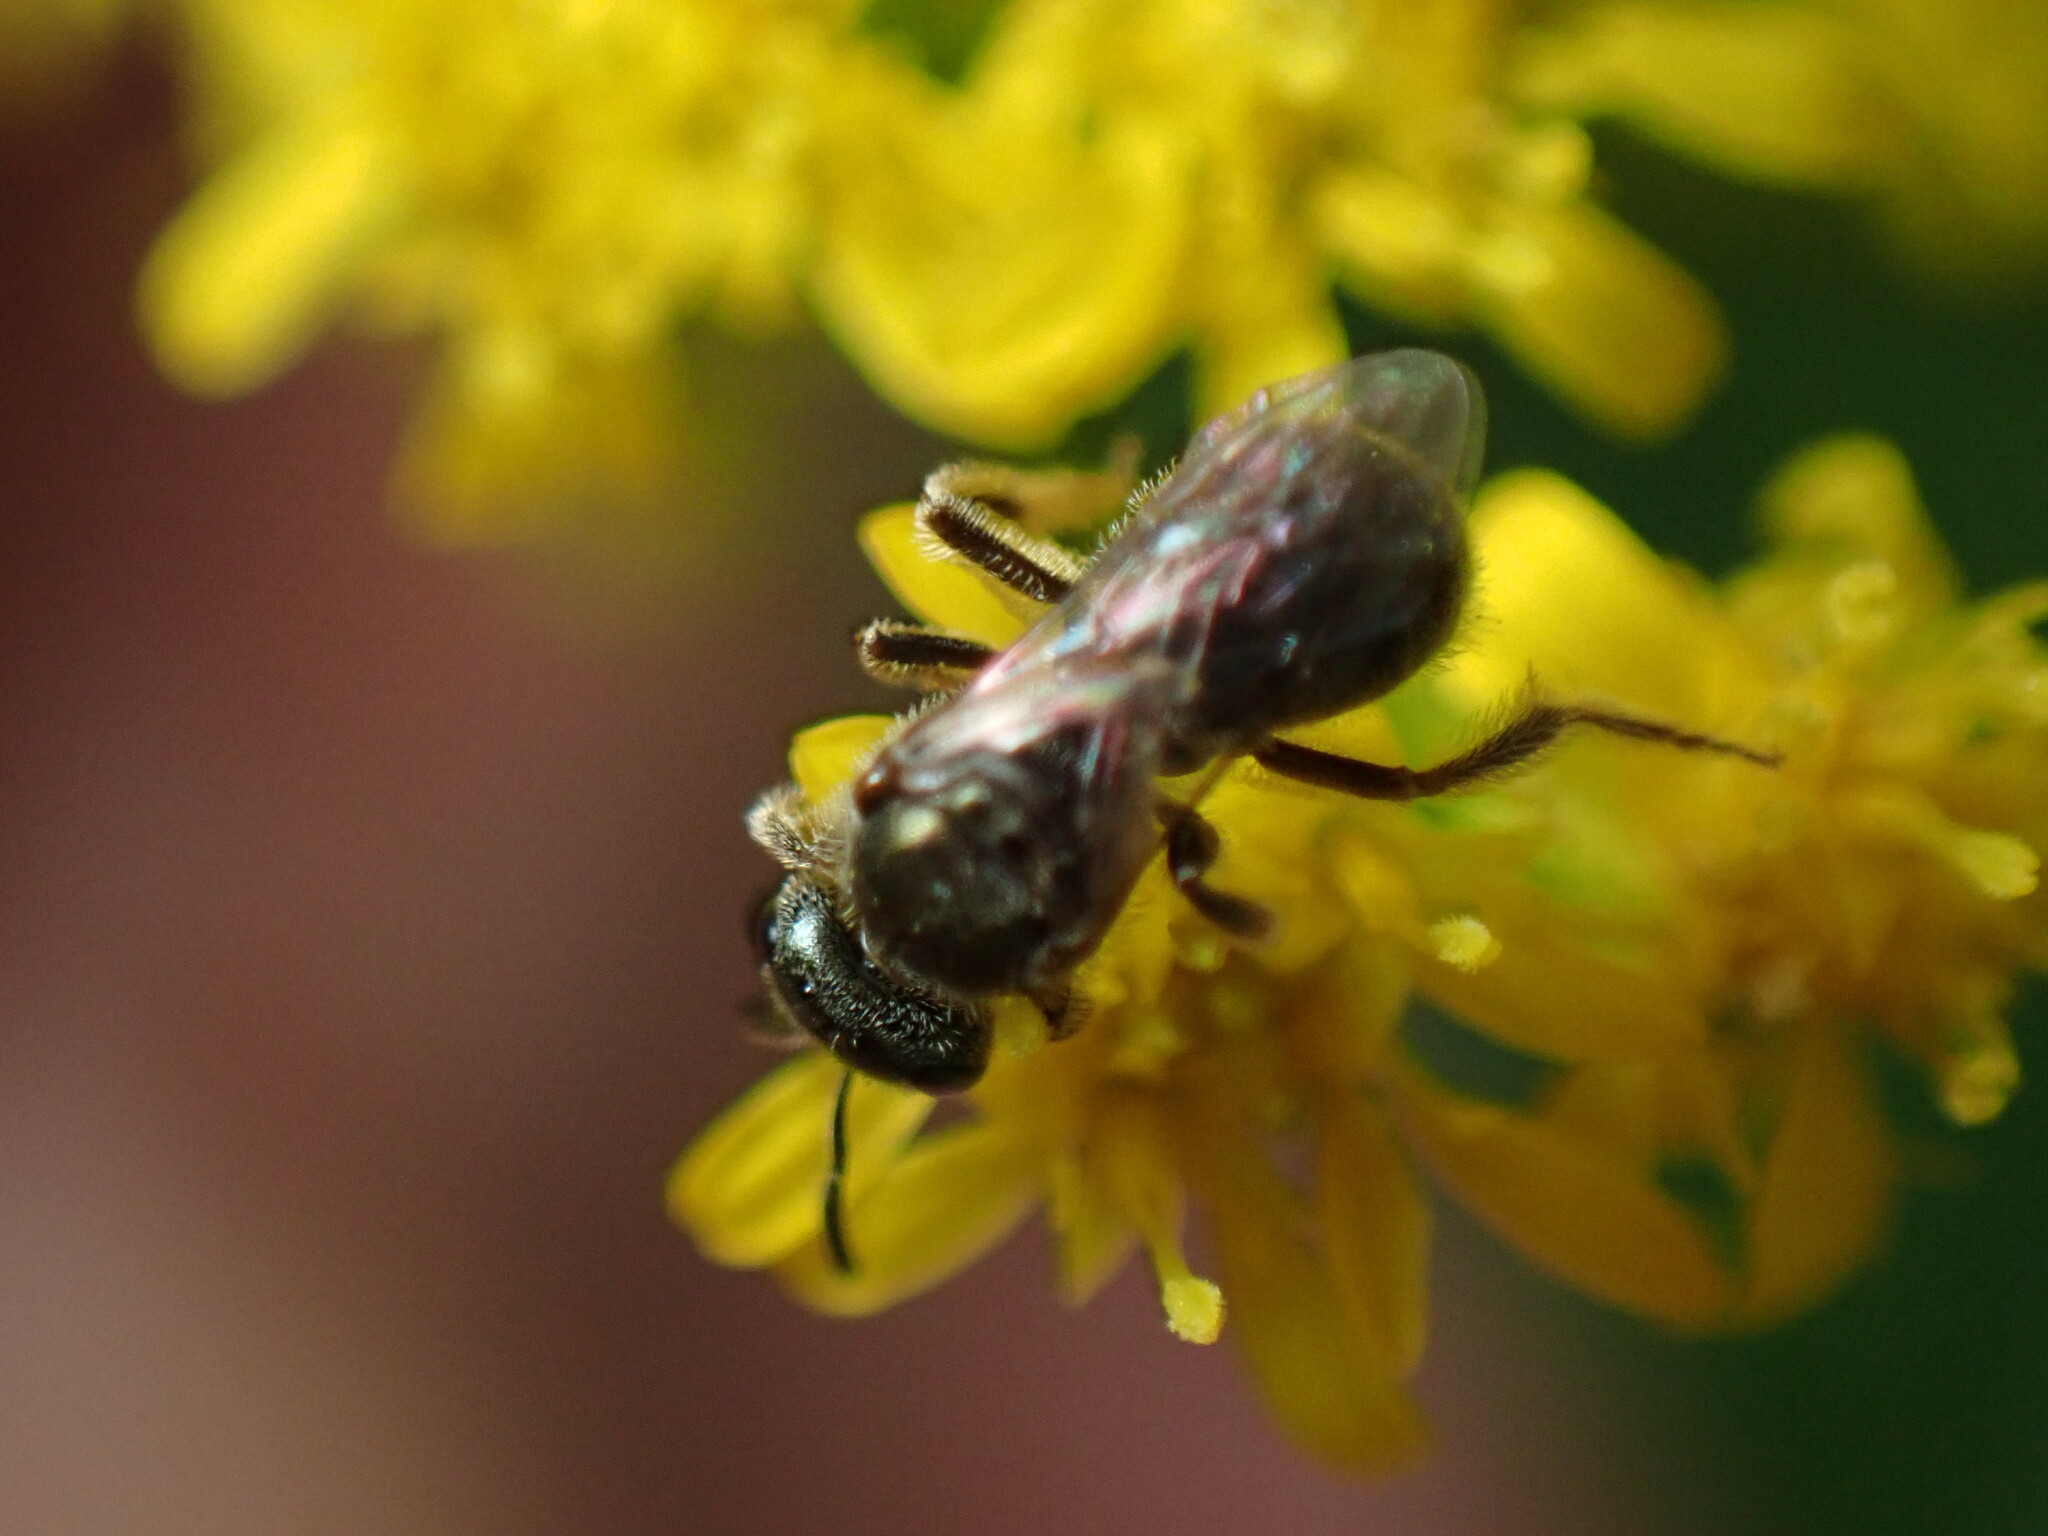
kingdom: Animalia
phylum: Arthropoda
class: Insecta
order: Hymenoptera
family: Halictidae
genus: Dialictus
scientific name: Dialictus
